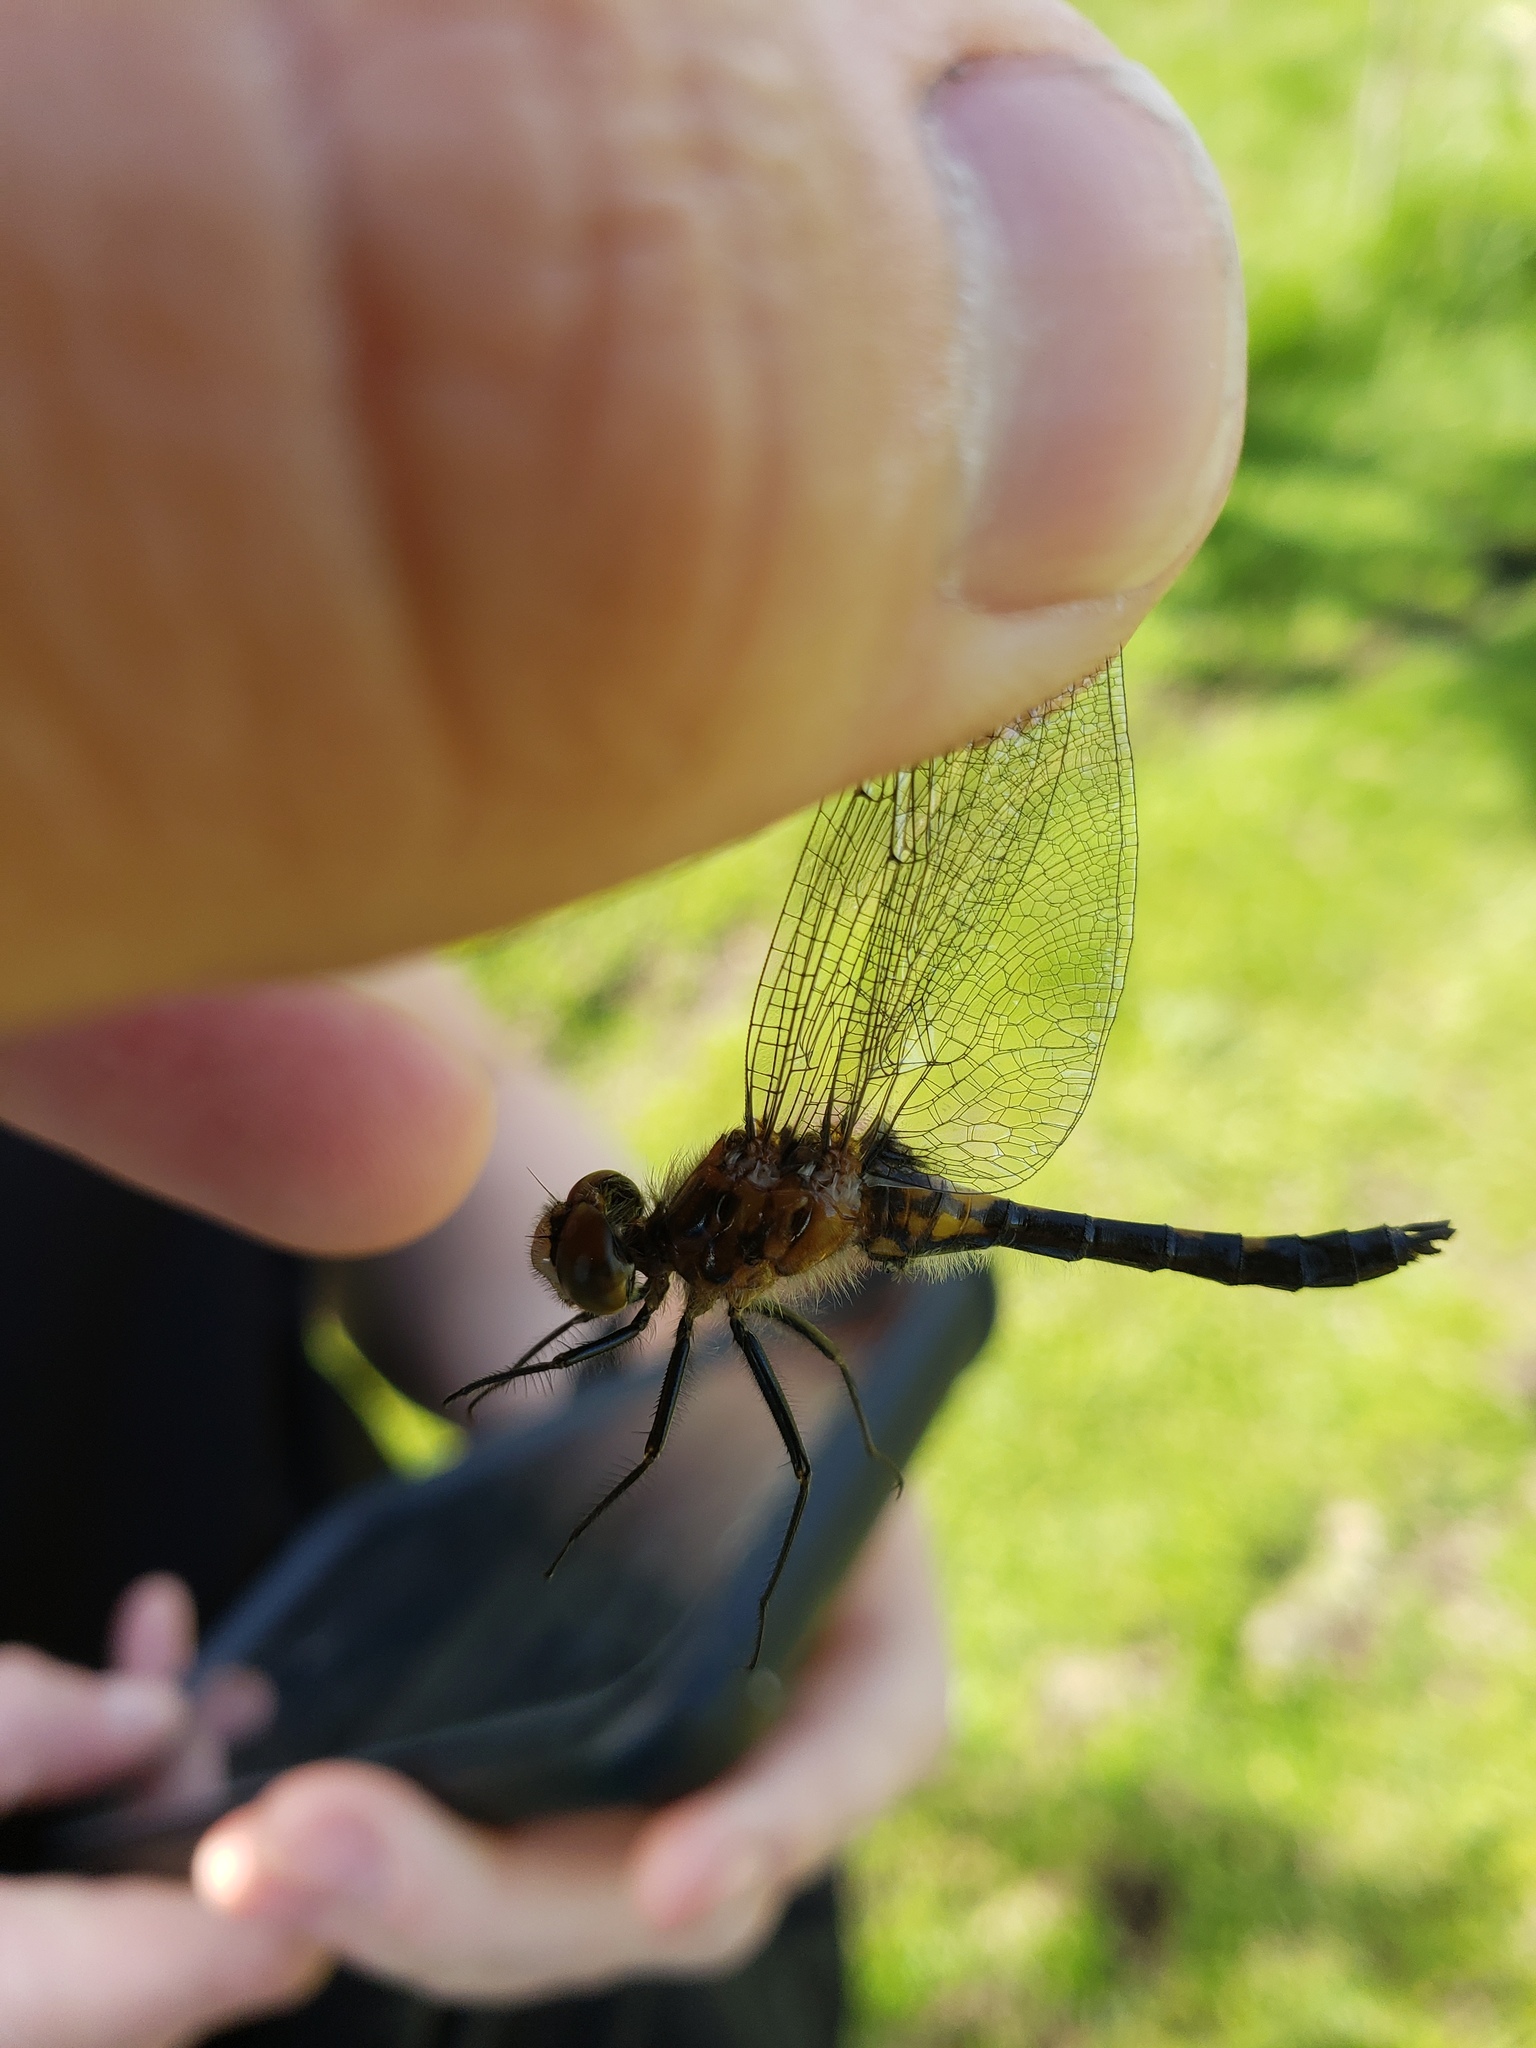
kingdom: Animalia
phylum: Arthropoda
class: Insecta
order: Odonata
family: Libellulidae
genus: Leucorrhinia
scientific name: Leucorrhinia intacta
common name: Dot-tailed whiteface
